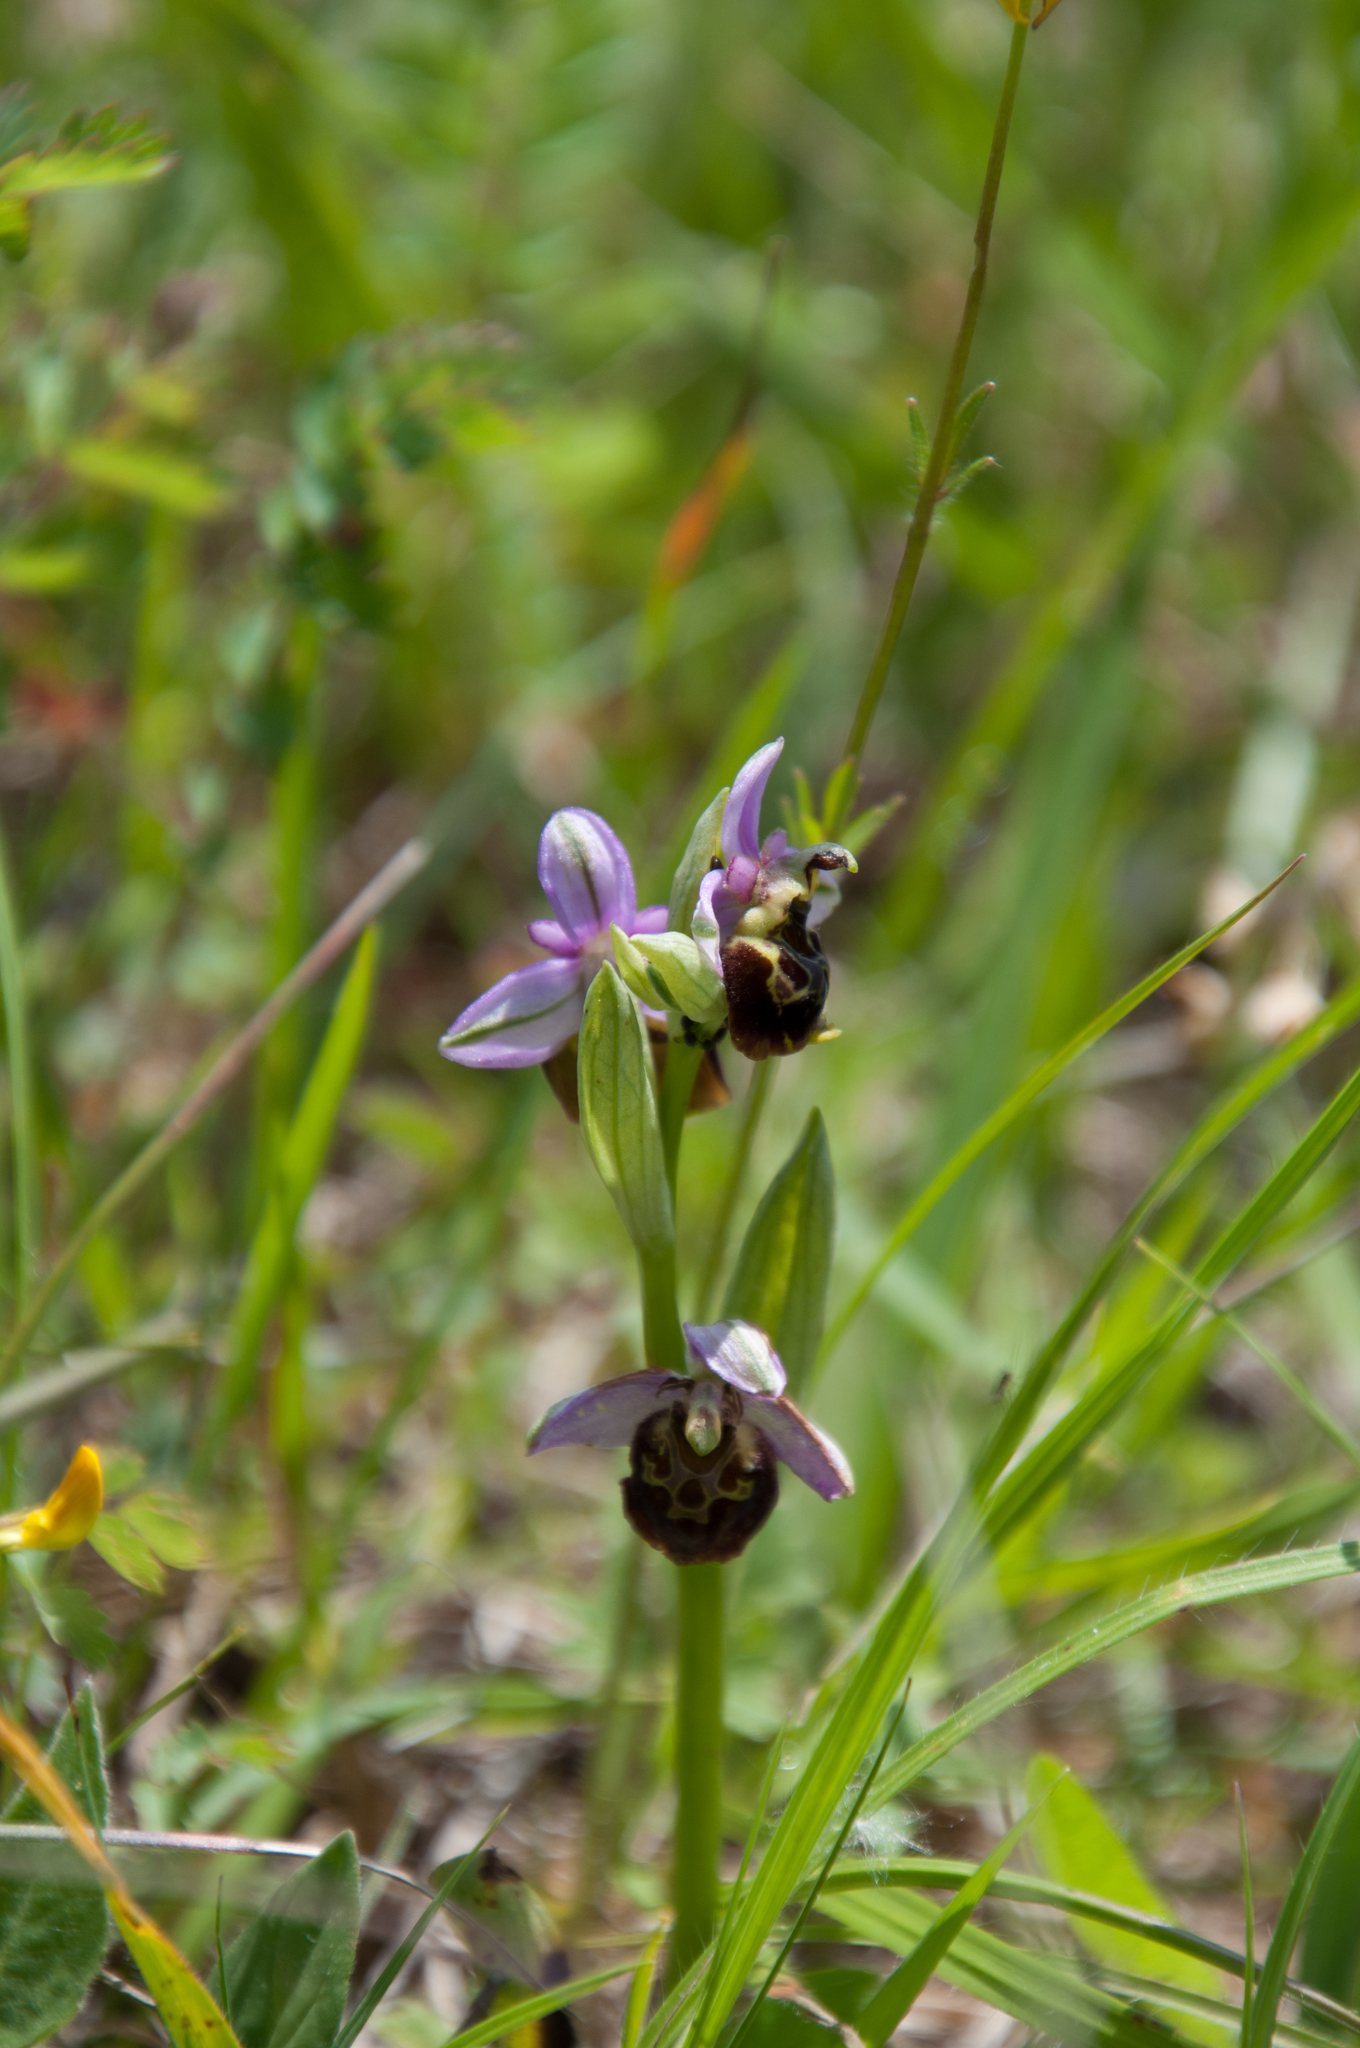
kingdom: Plantae
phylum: Tracheophyta
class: Liliopsida
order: Asparagales
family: Orchidaceae
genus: Ophrys
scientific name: Ophrys holosericea
